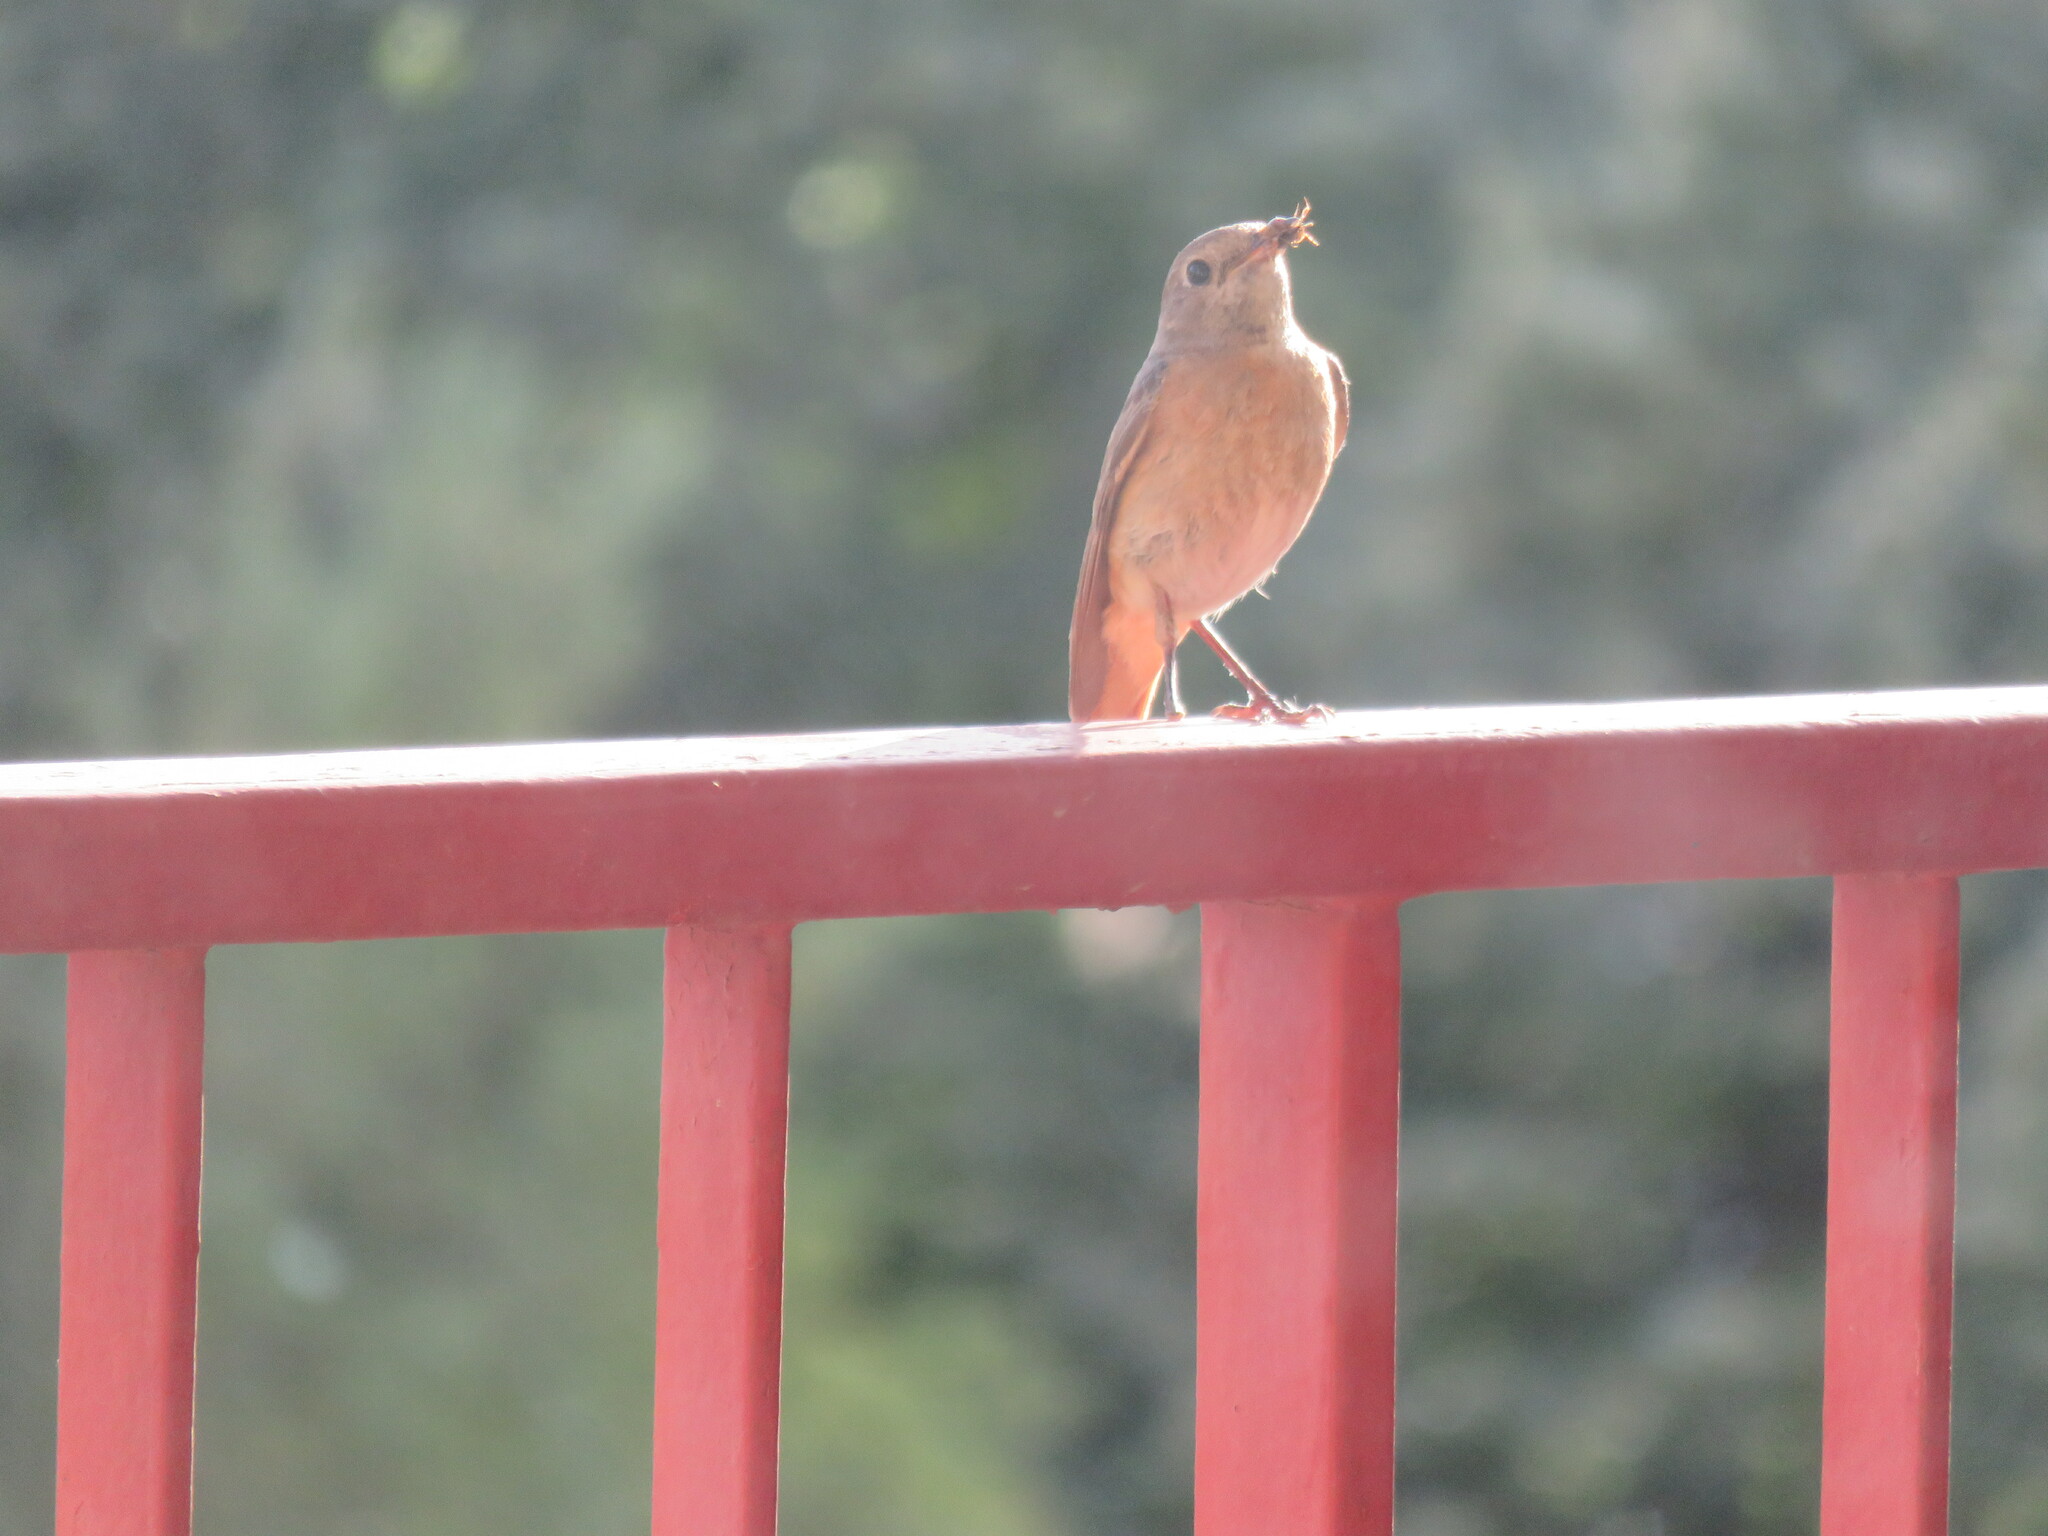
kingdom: Animalia
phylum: Chordata
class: Aves
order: Passeriformes
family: Muscicapidae
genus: Phoenicurus
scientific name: Phoenicurus phoenicurus
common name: Common redstart
